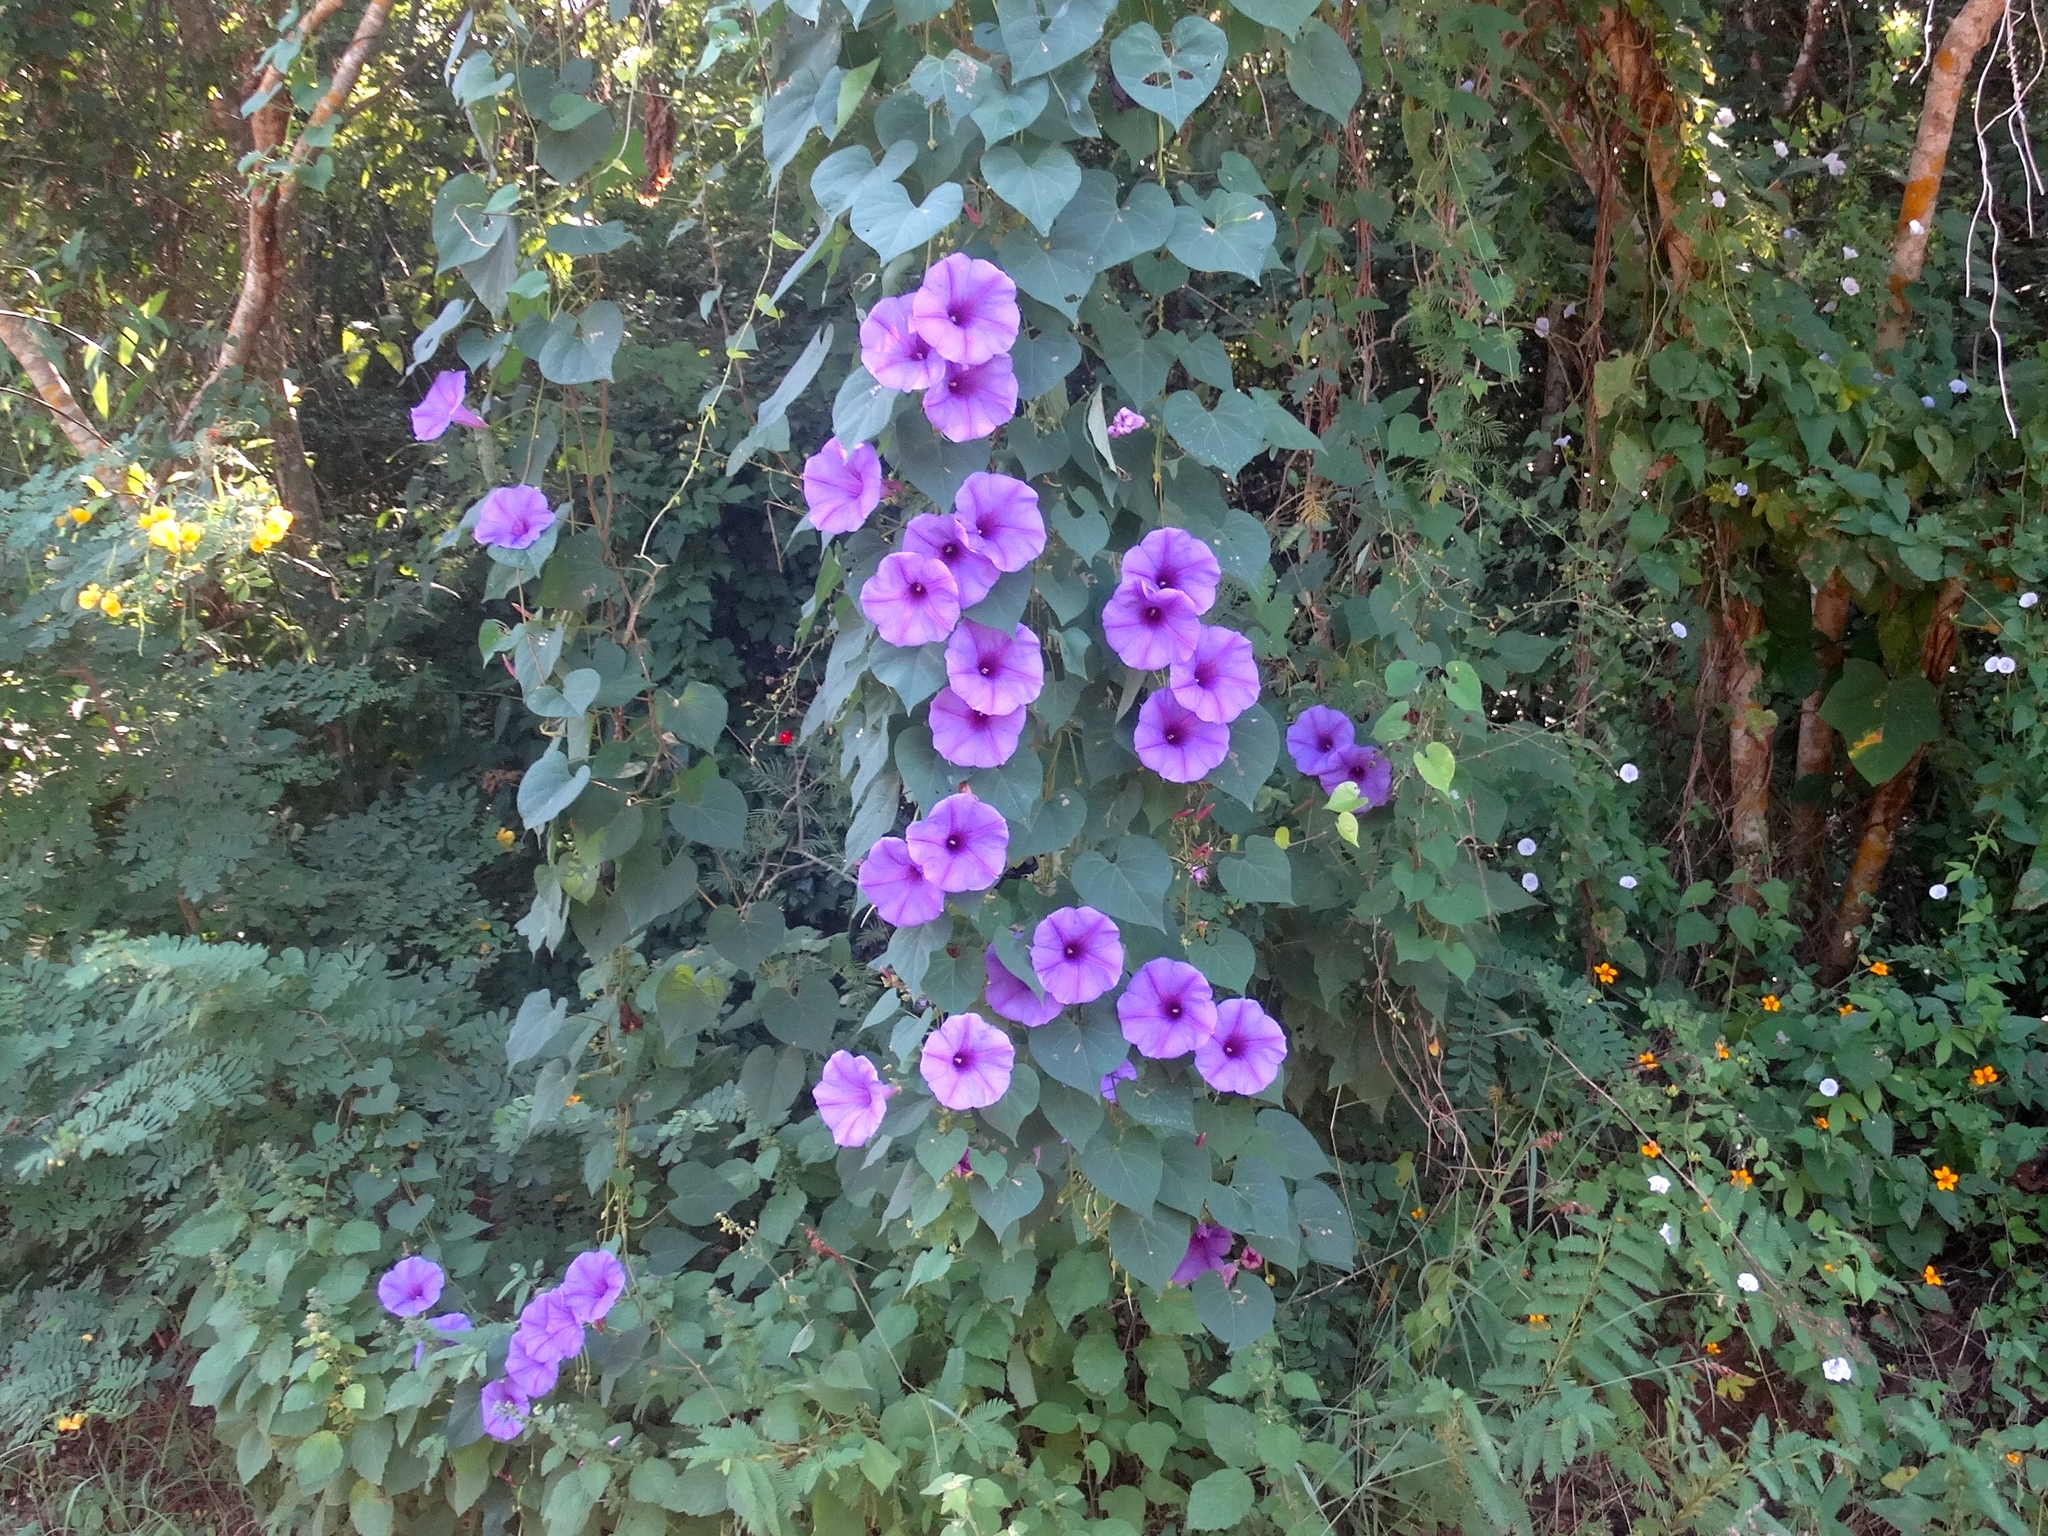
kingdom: Plantae
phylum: Tracheophyta
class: Magnoliopsida
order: Solanales
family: Convolvulaceae
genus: Ipomoea
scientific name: Ipomoea pedicellaris
